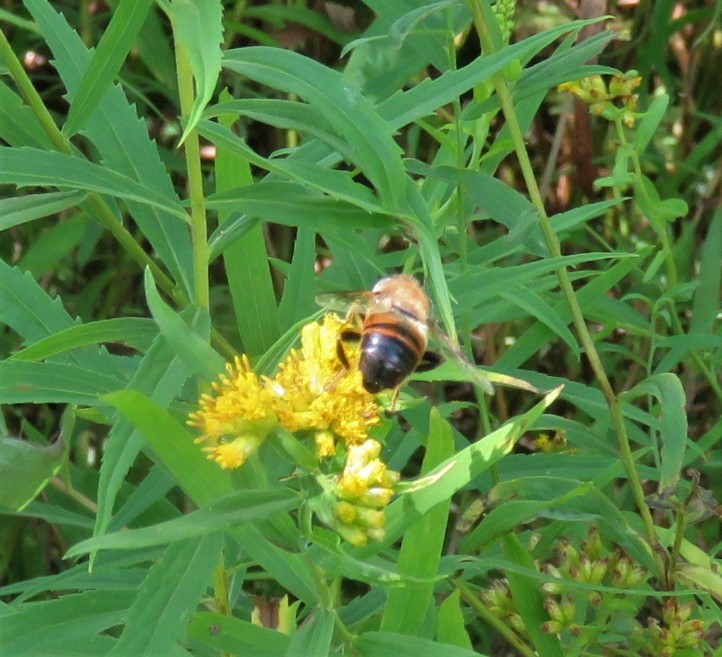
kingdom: Animalia
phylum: Arthropoda
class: Insecta
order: Diptera
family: Syrphidae
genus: Eristalis
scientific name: Eristalis tenax
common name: Drone fly
